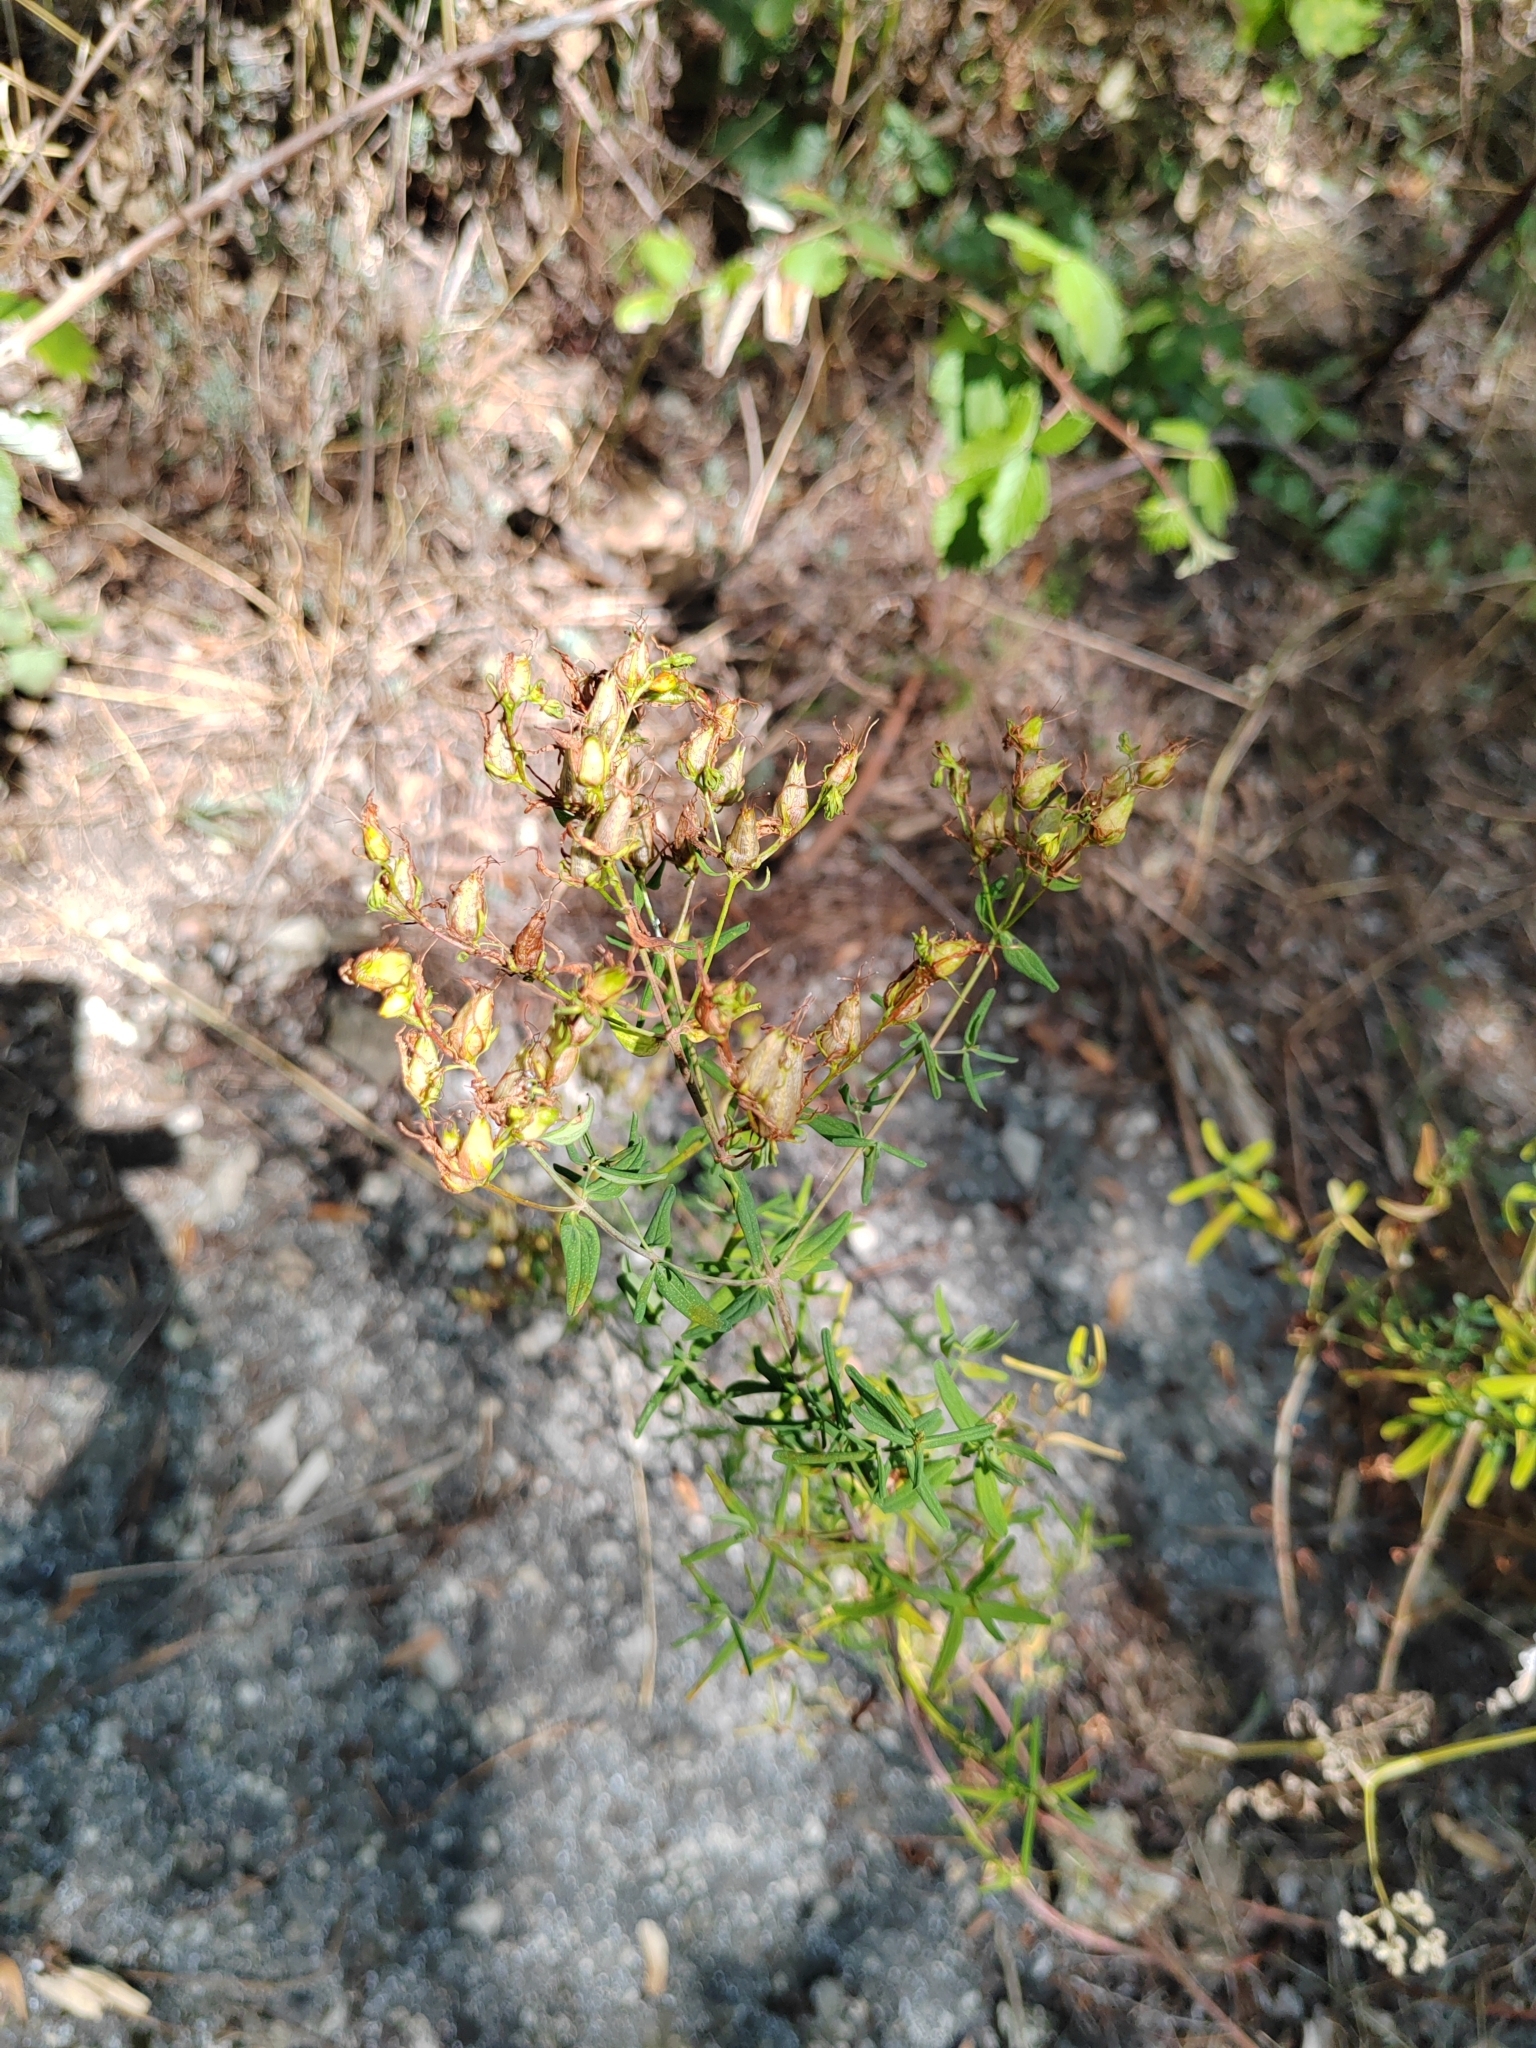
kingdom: Plantae
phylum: Tracheophyta
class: Magnoliopsida
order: Malpighiales
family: Hypericaceae
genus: Hypericum
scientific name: Hypericum perforatum
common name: Common st. johnswort
